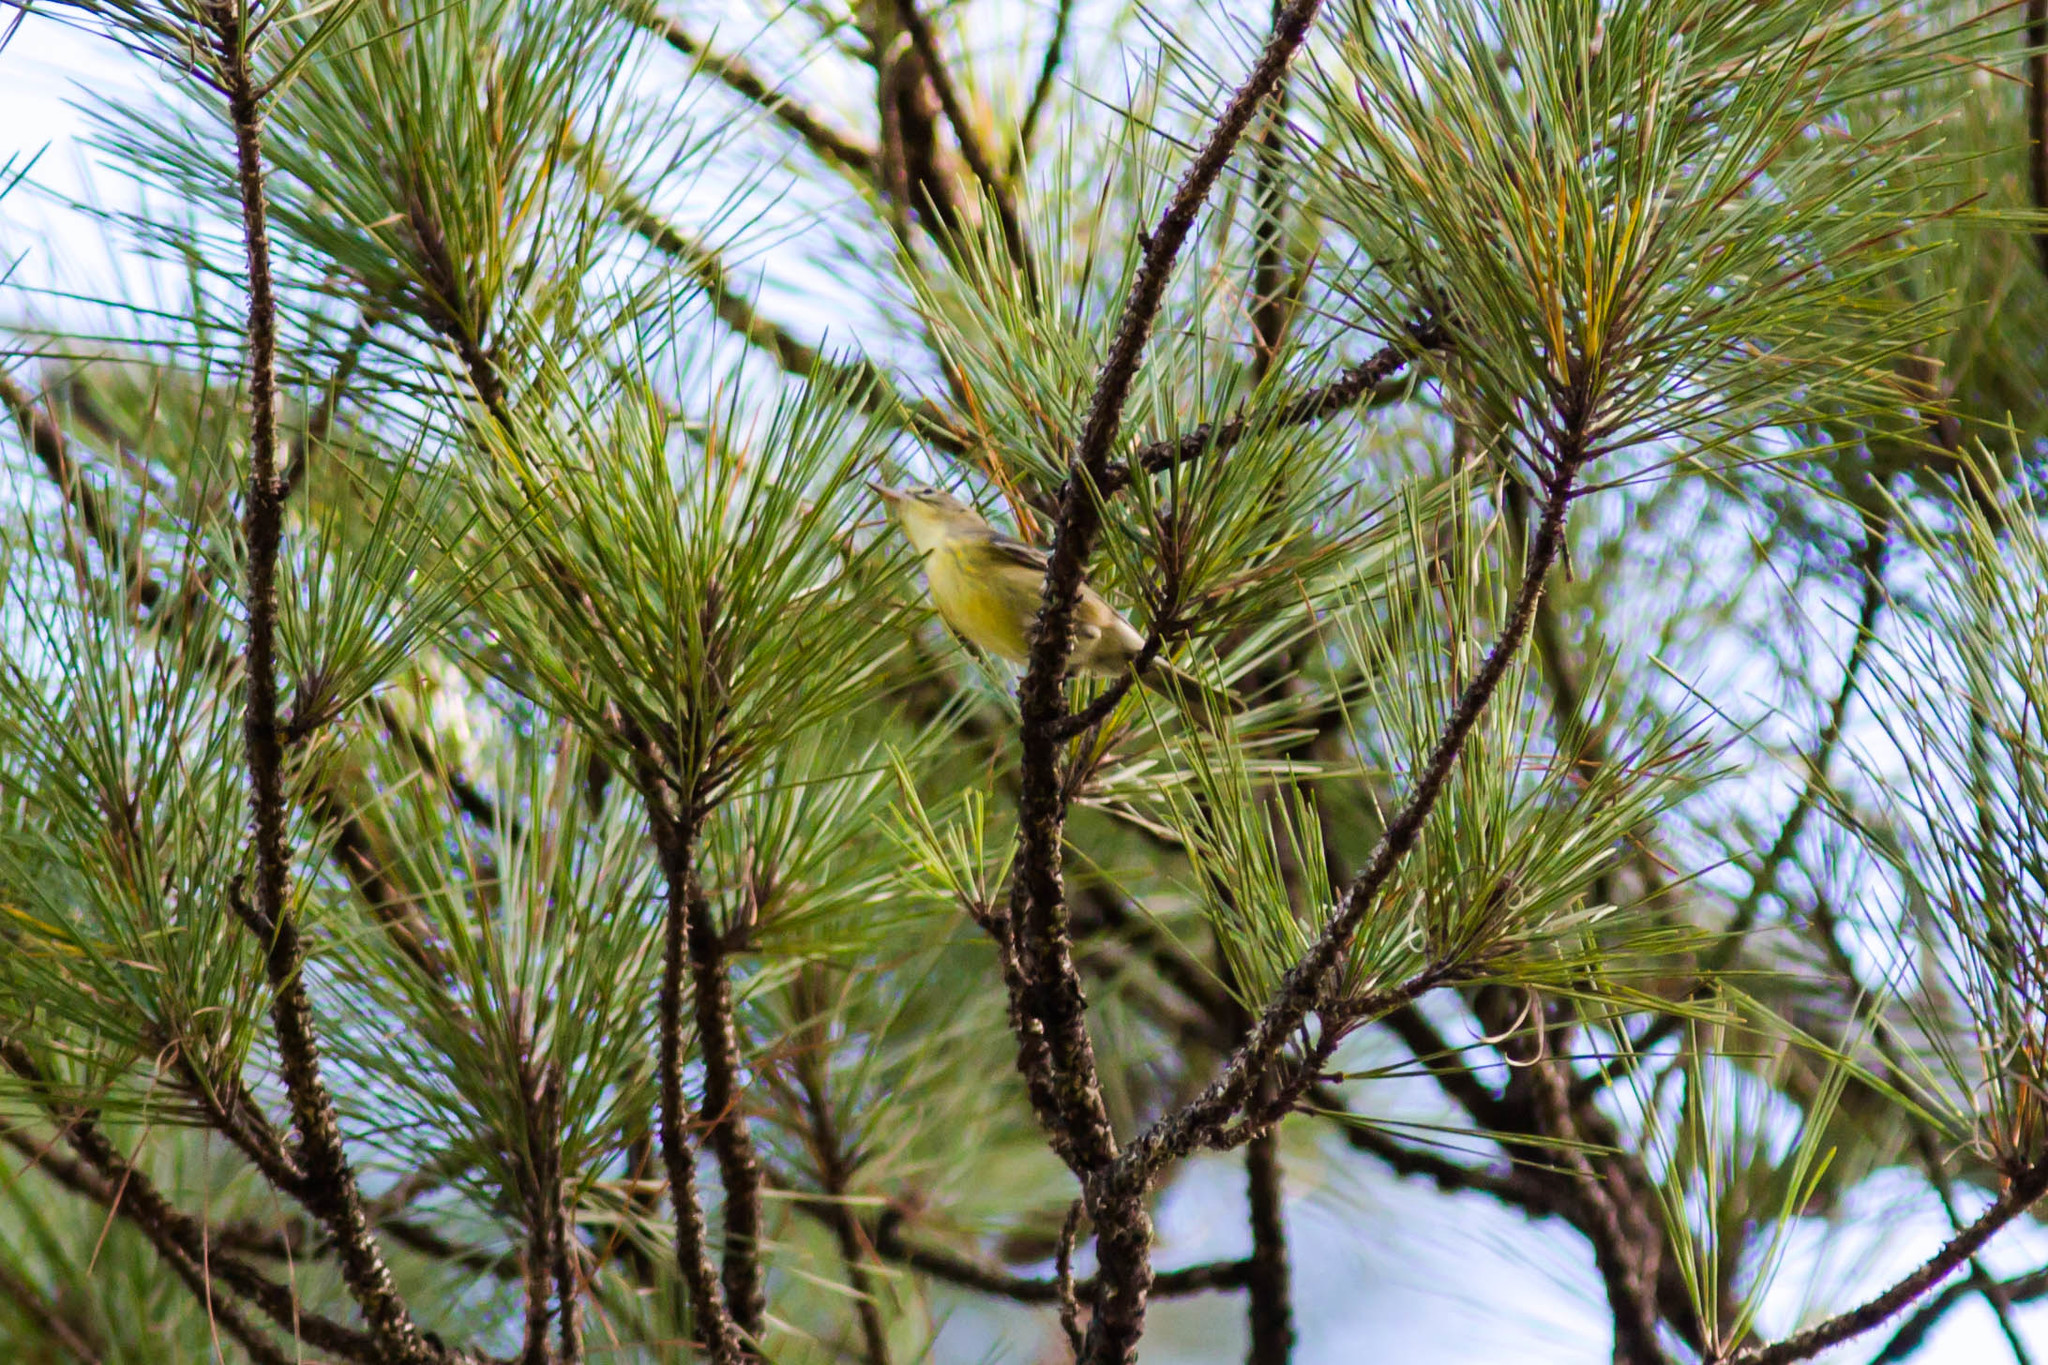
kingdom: Animalia
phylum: Chordata
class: Aves
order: Passeriformes
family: Parulidae
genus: Setophaga
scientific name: Setophaga pinus
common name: Pine warbler
